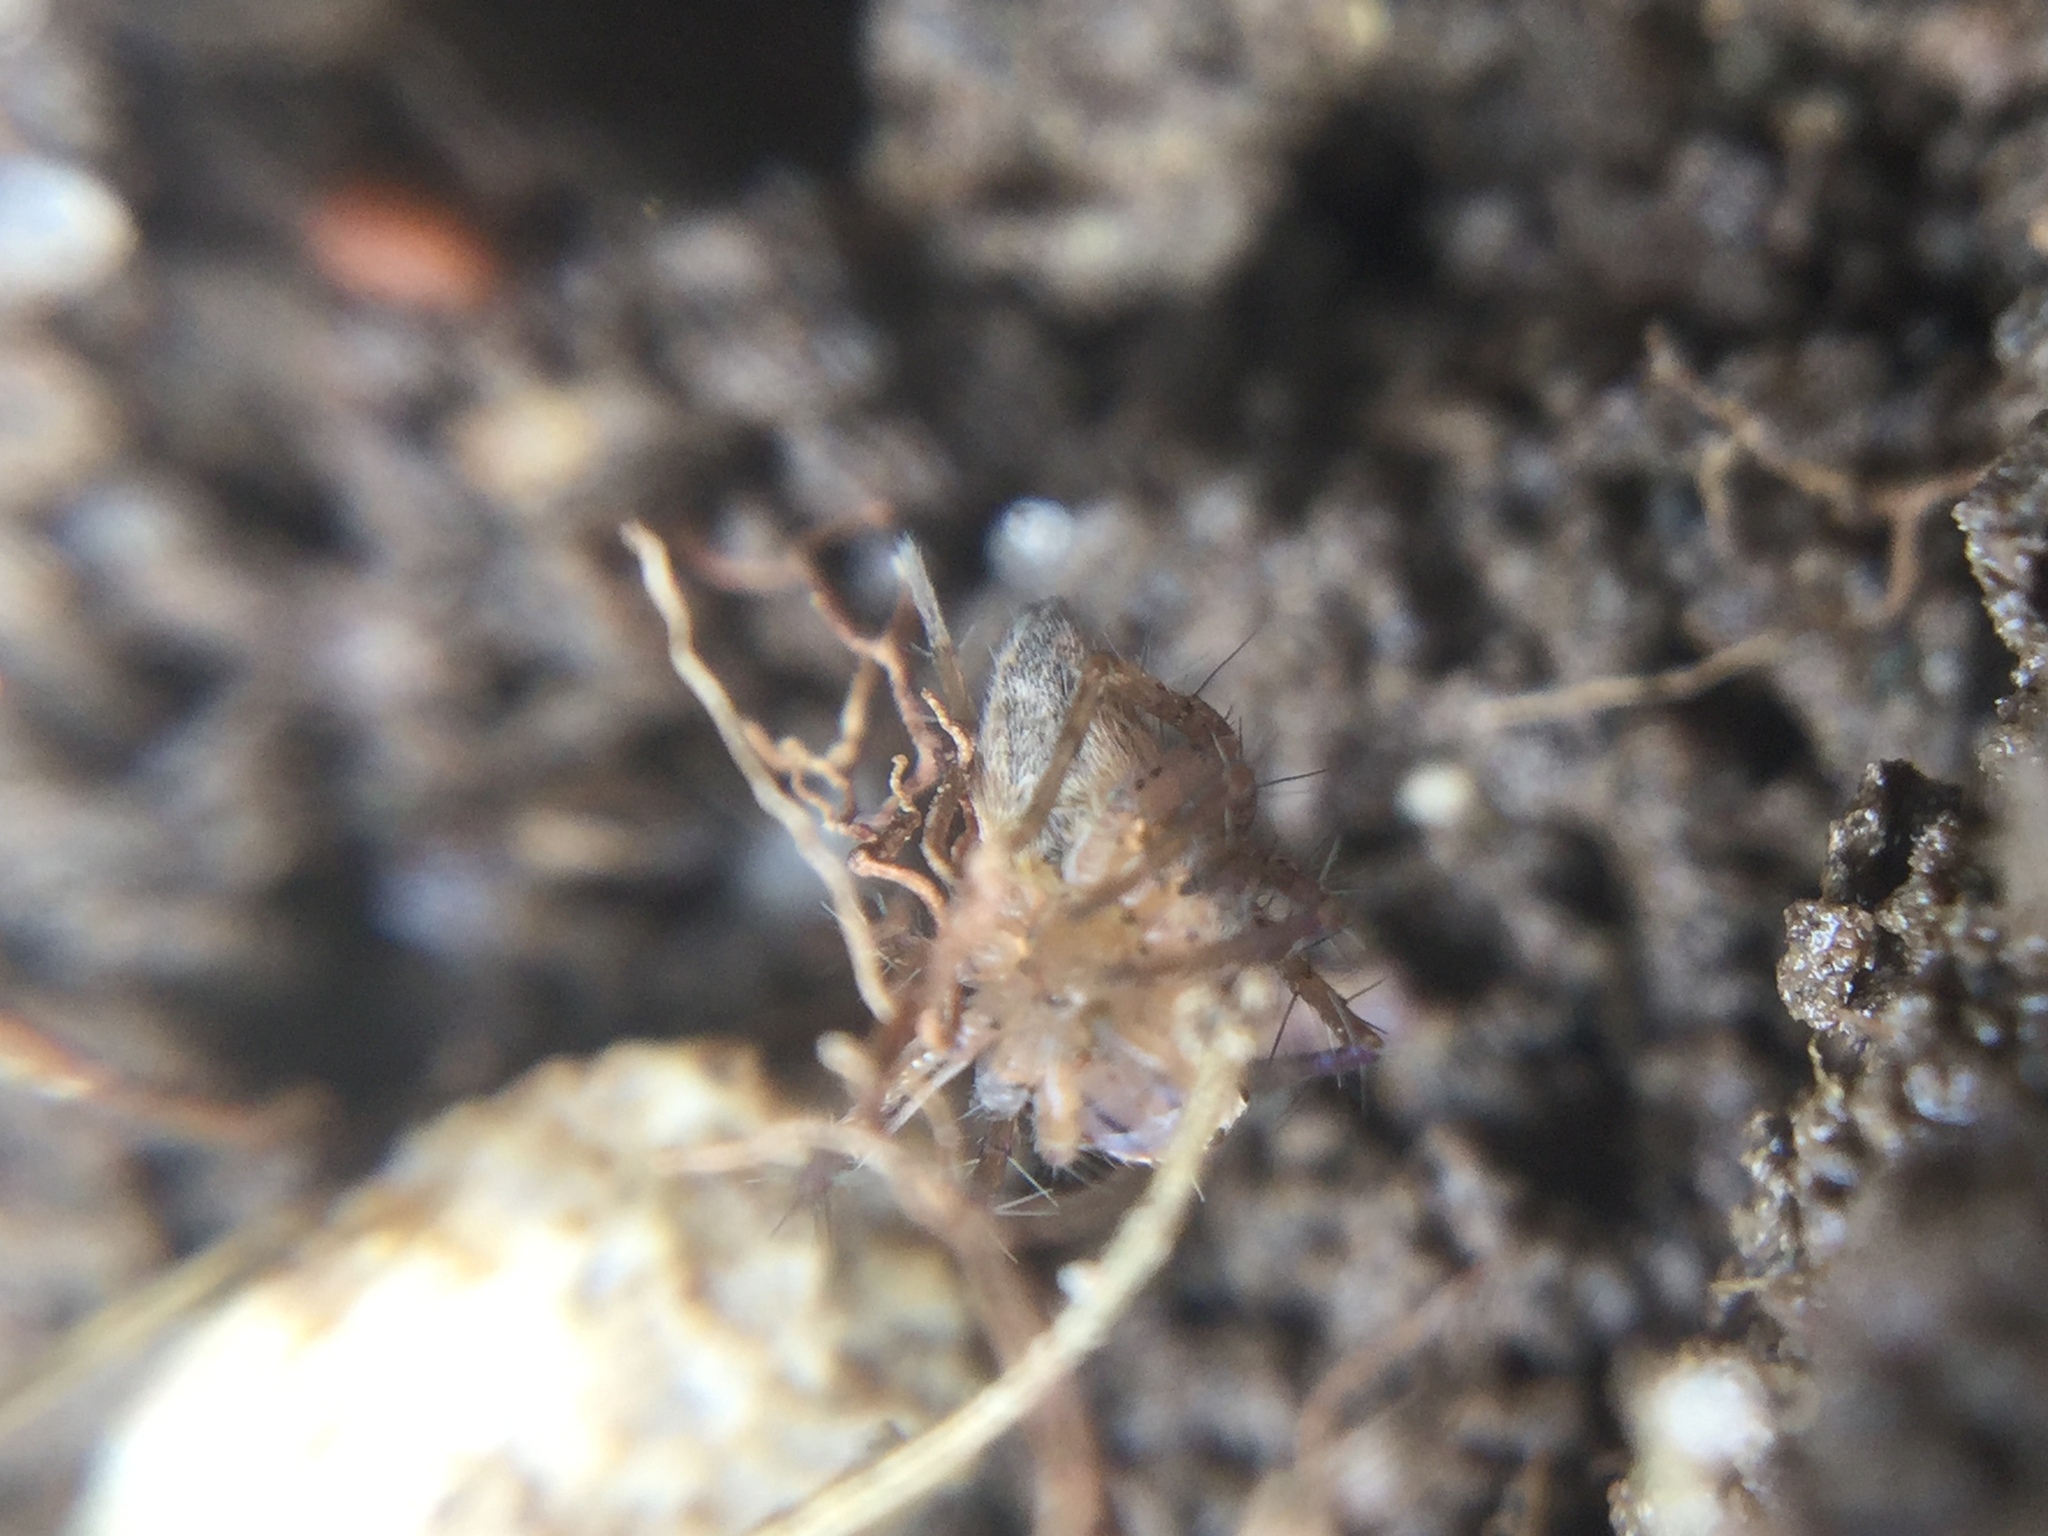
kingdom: Animalia
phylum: Arthropoda
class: Arachnida
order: Araneae
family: Oxyopidae
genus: Oxyopes
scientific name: Oxyopes aglossus
